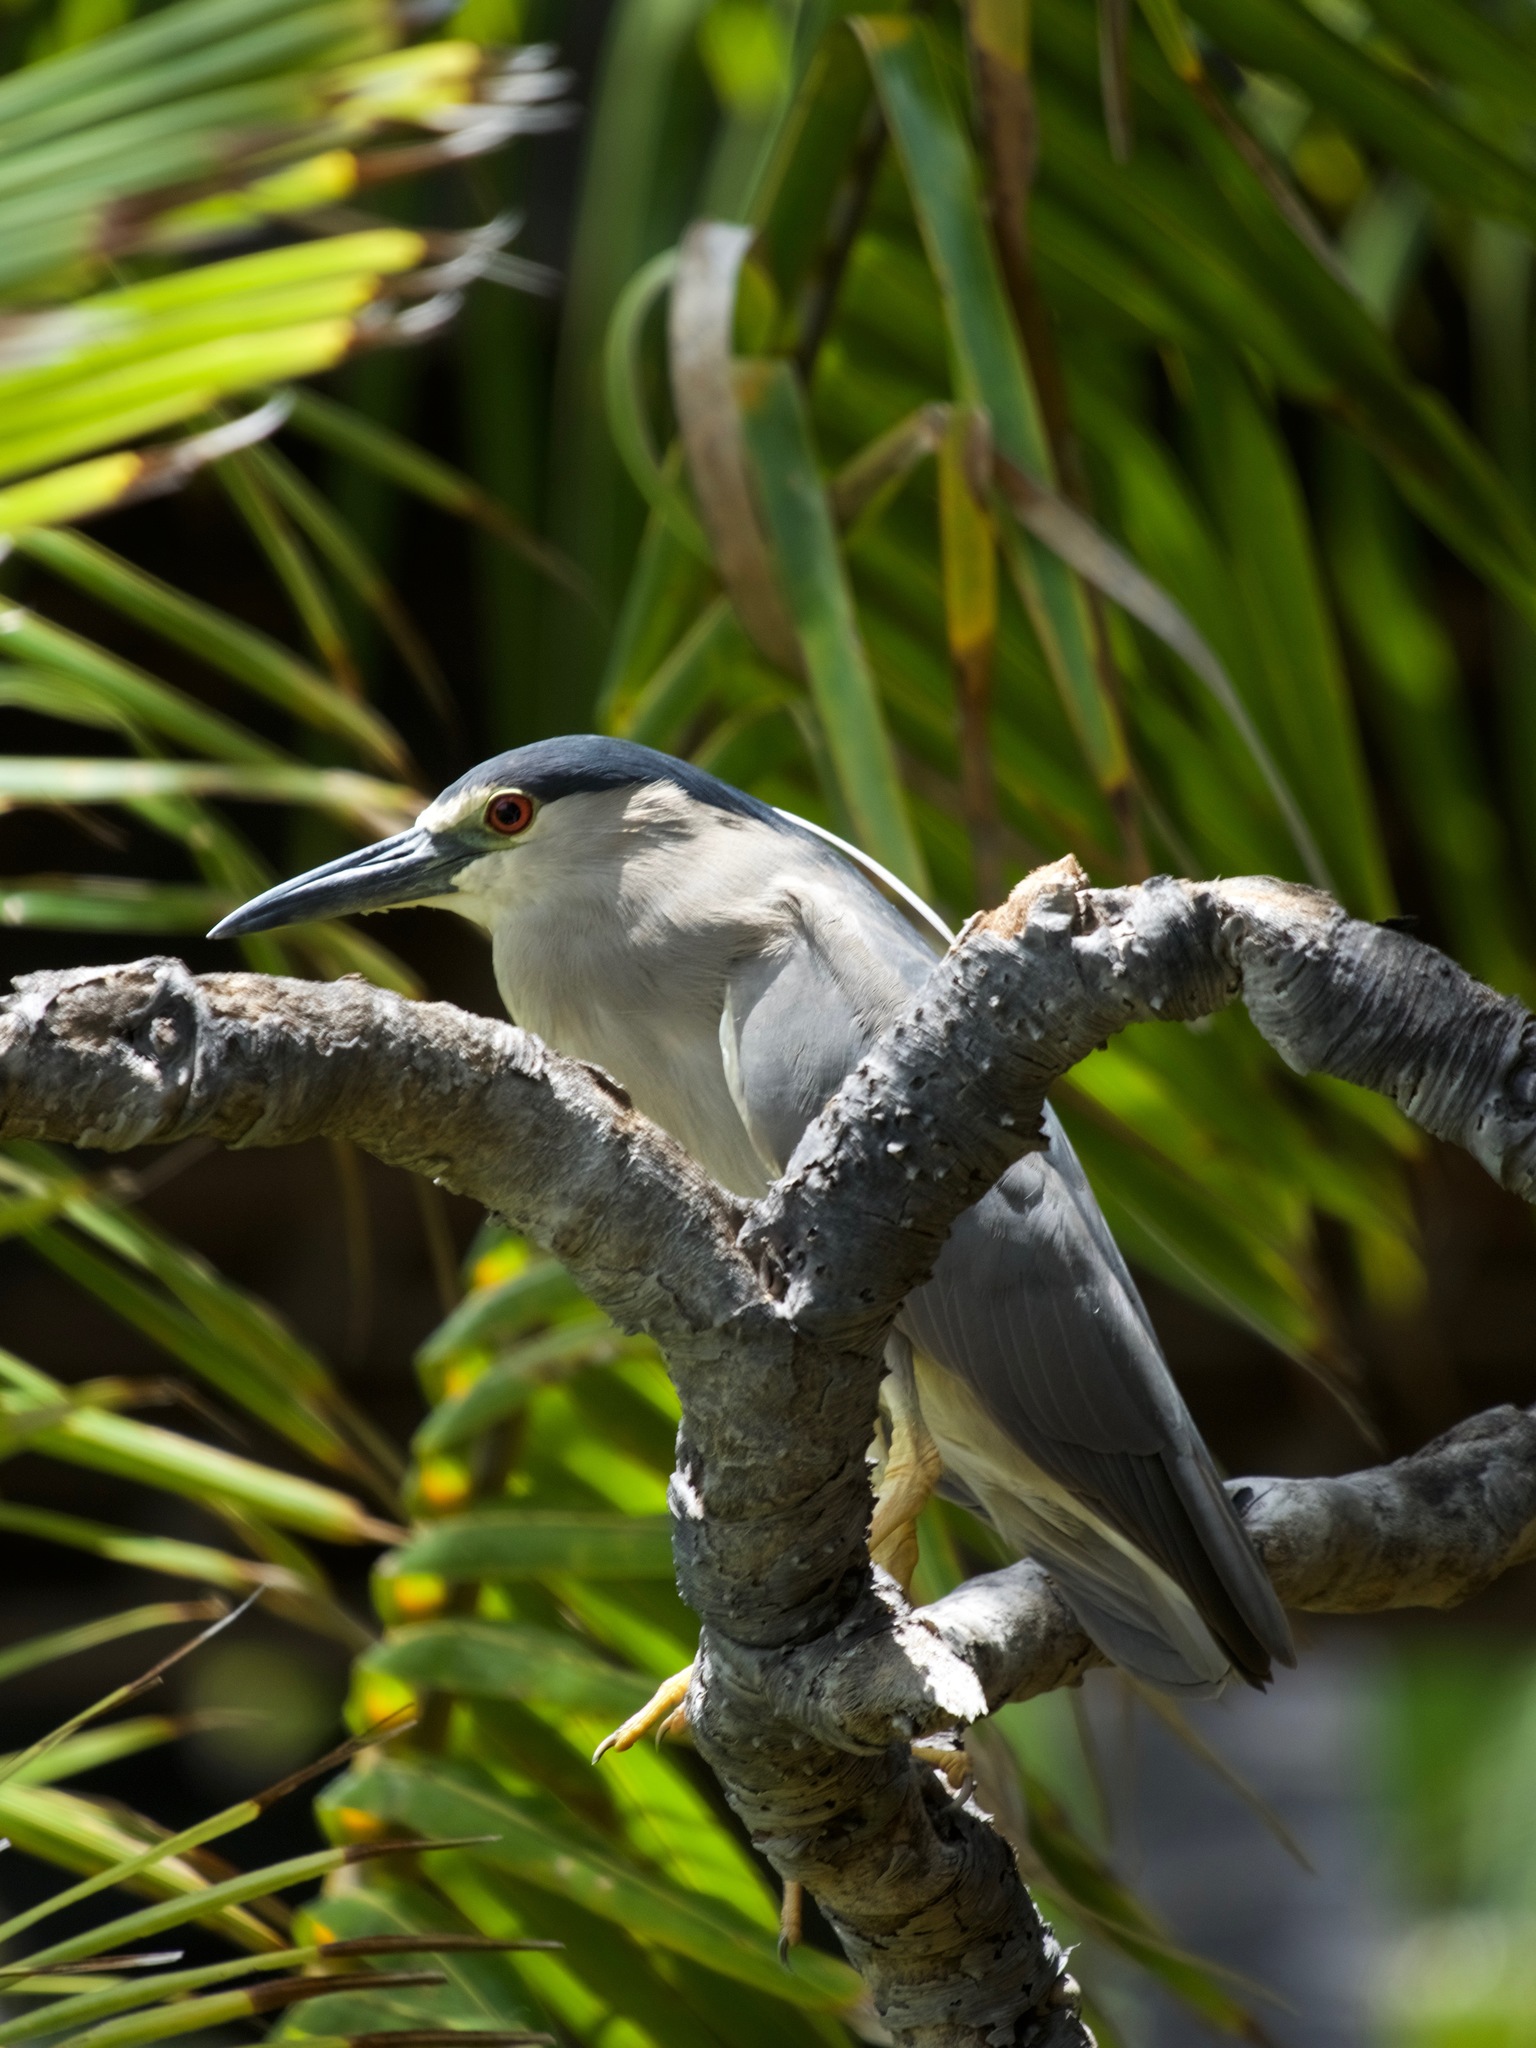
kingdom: Animalia
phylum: Chordata
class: Aves
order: Pelecaniformes
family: Ardeidae
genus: Nycticorax
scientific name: Nycticorax nycticorax
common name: Black-crowned night heron
